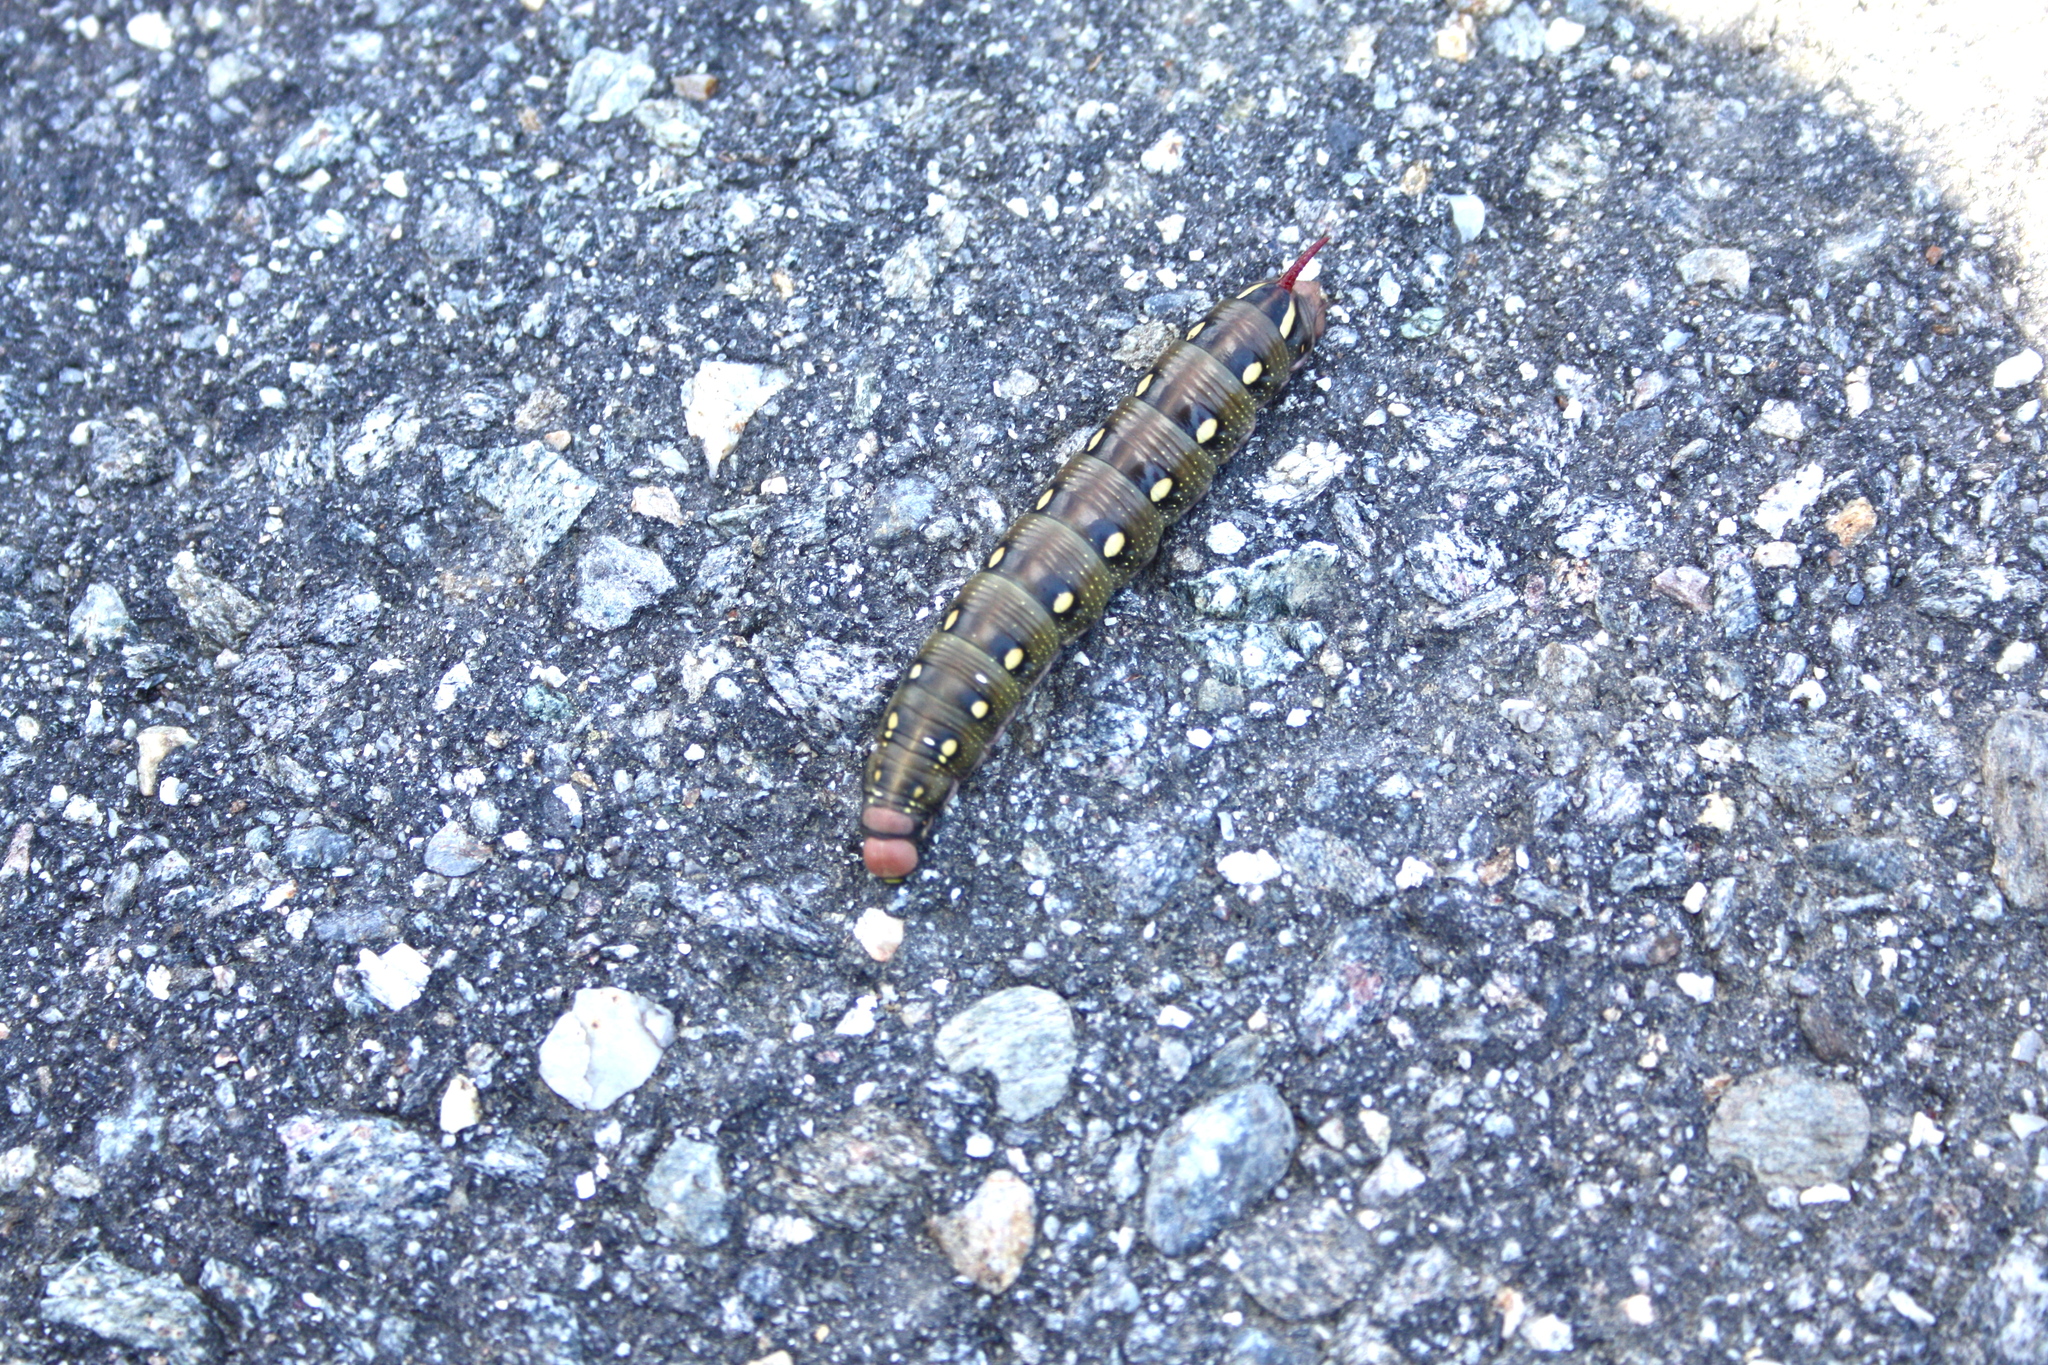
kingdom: Animalia
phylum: Arthropoda
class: Insecta
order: Lepidoptera
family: Sphingidae
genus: Hyles
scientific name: Hyles gallii
